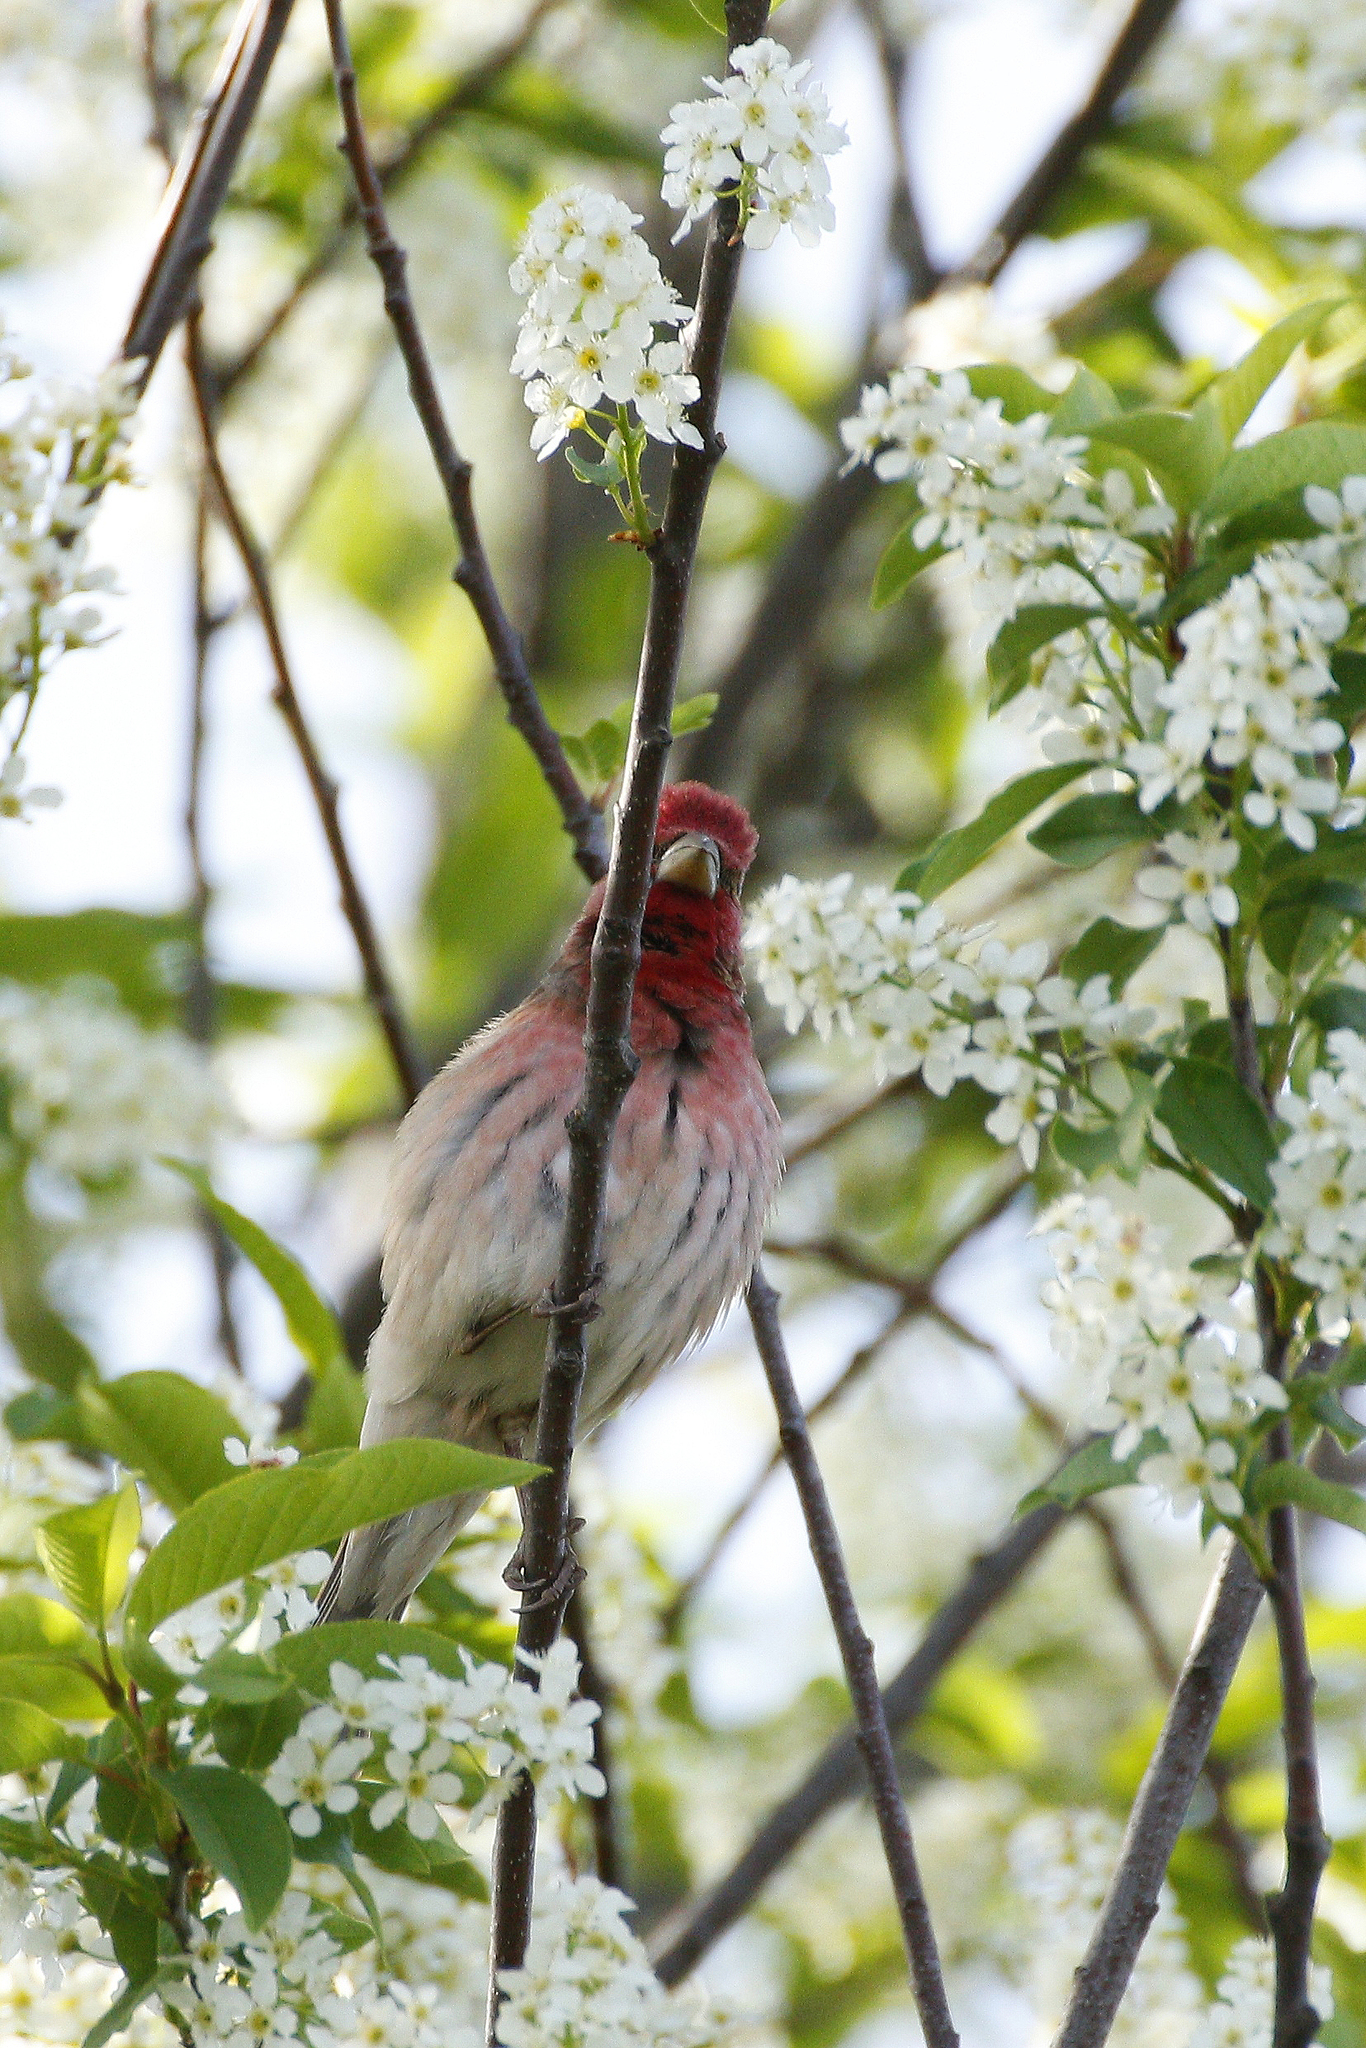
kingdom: Animalia
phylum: Chordata
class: Aves
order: Passeriformes
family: Fringillidae
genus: Carpodacus
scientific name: Carpodacus erythrinus
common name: Common rosefinch
